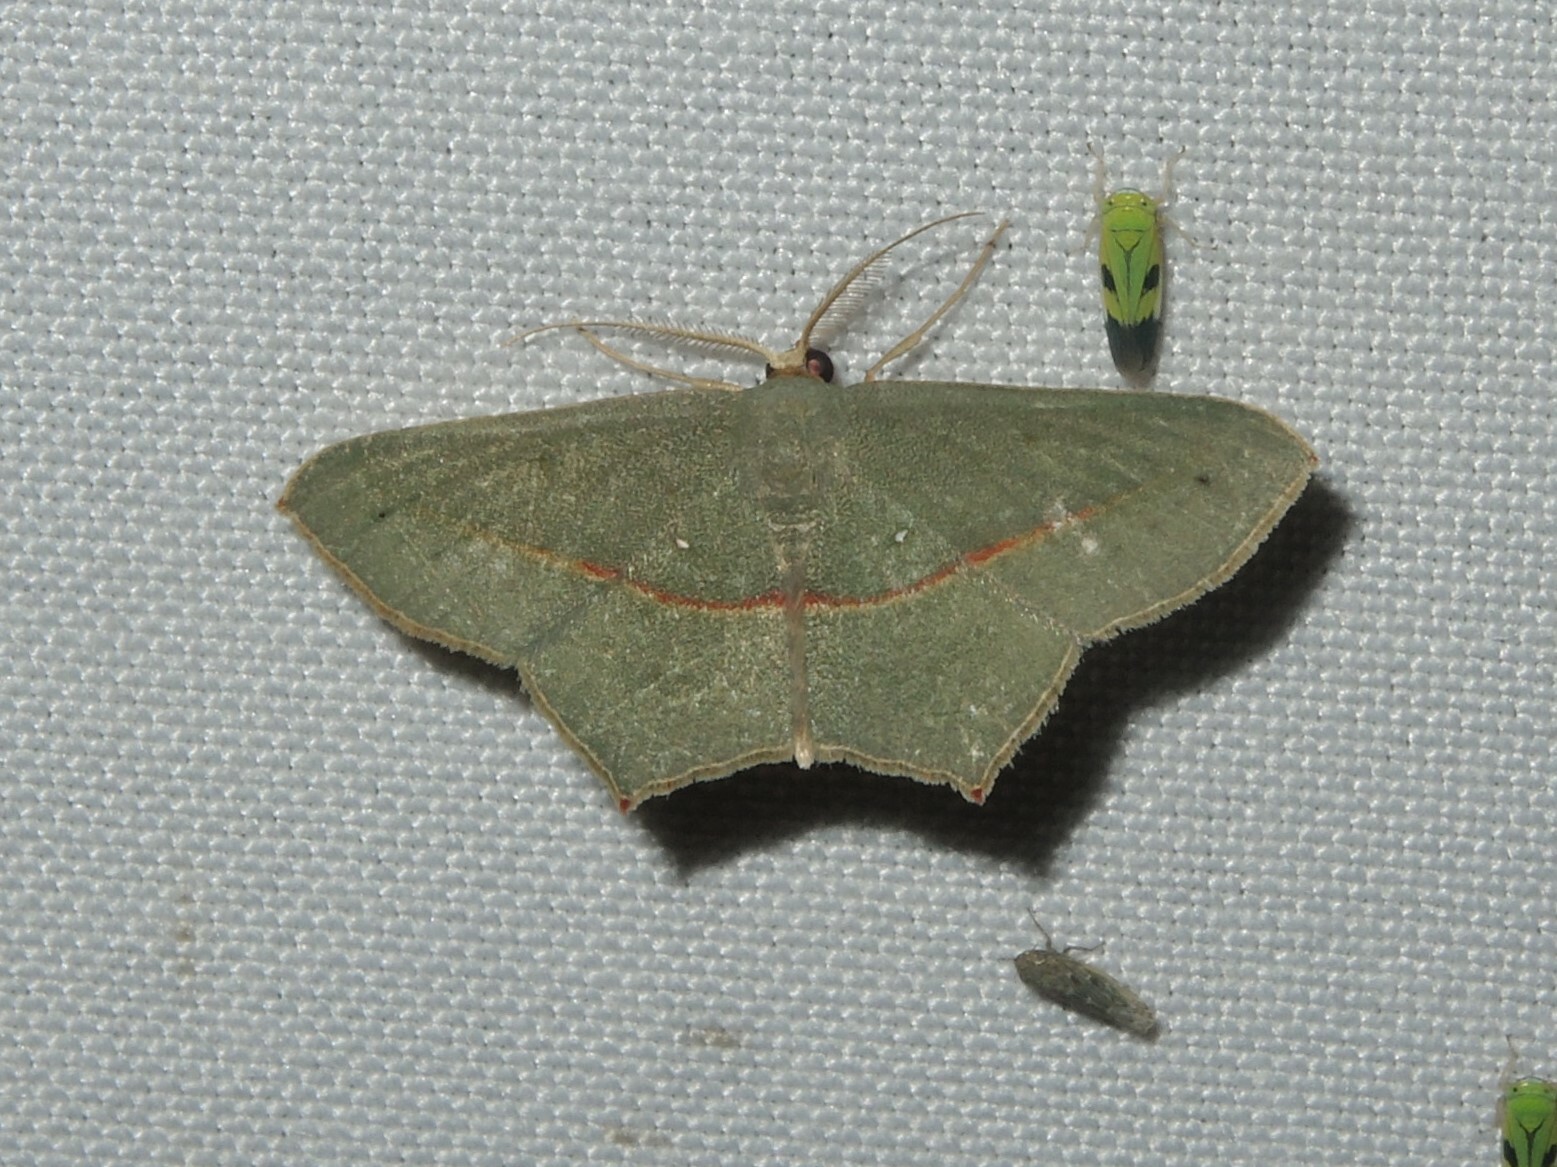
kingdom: Animalia
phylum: Arthropoda
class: Insecta
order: Lepidoptera
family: Geometridae
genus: Traminda
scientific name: Traminda mundissima
